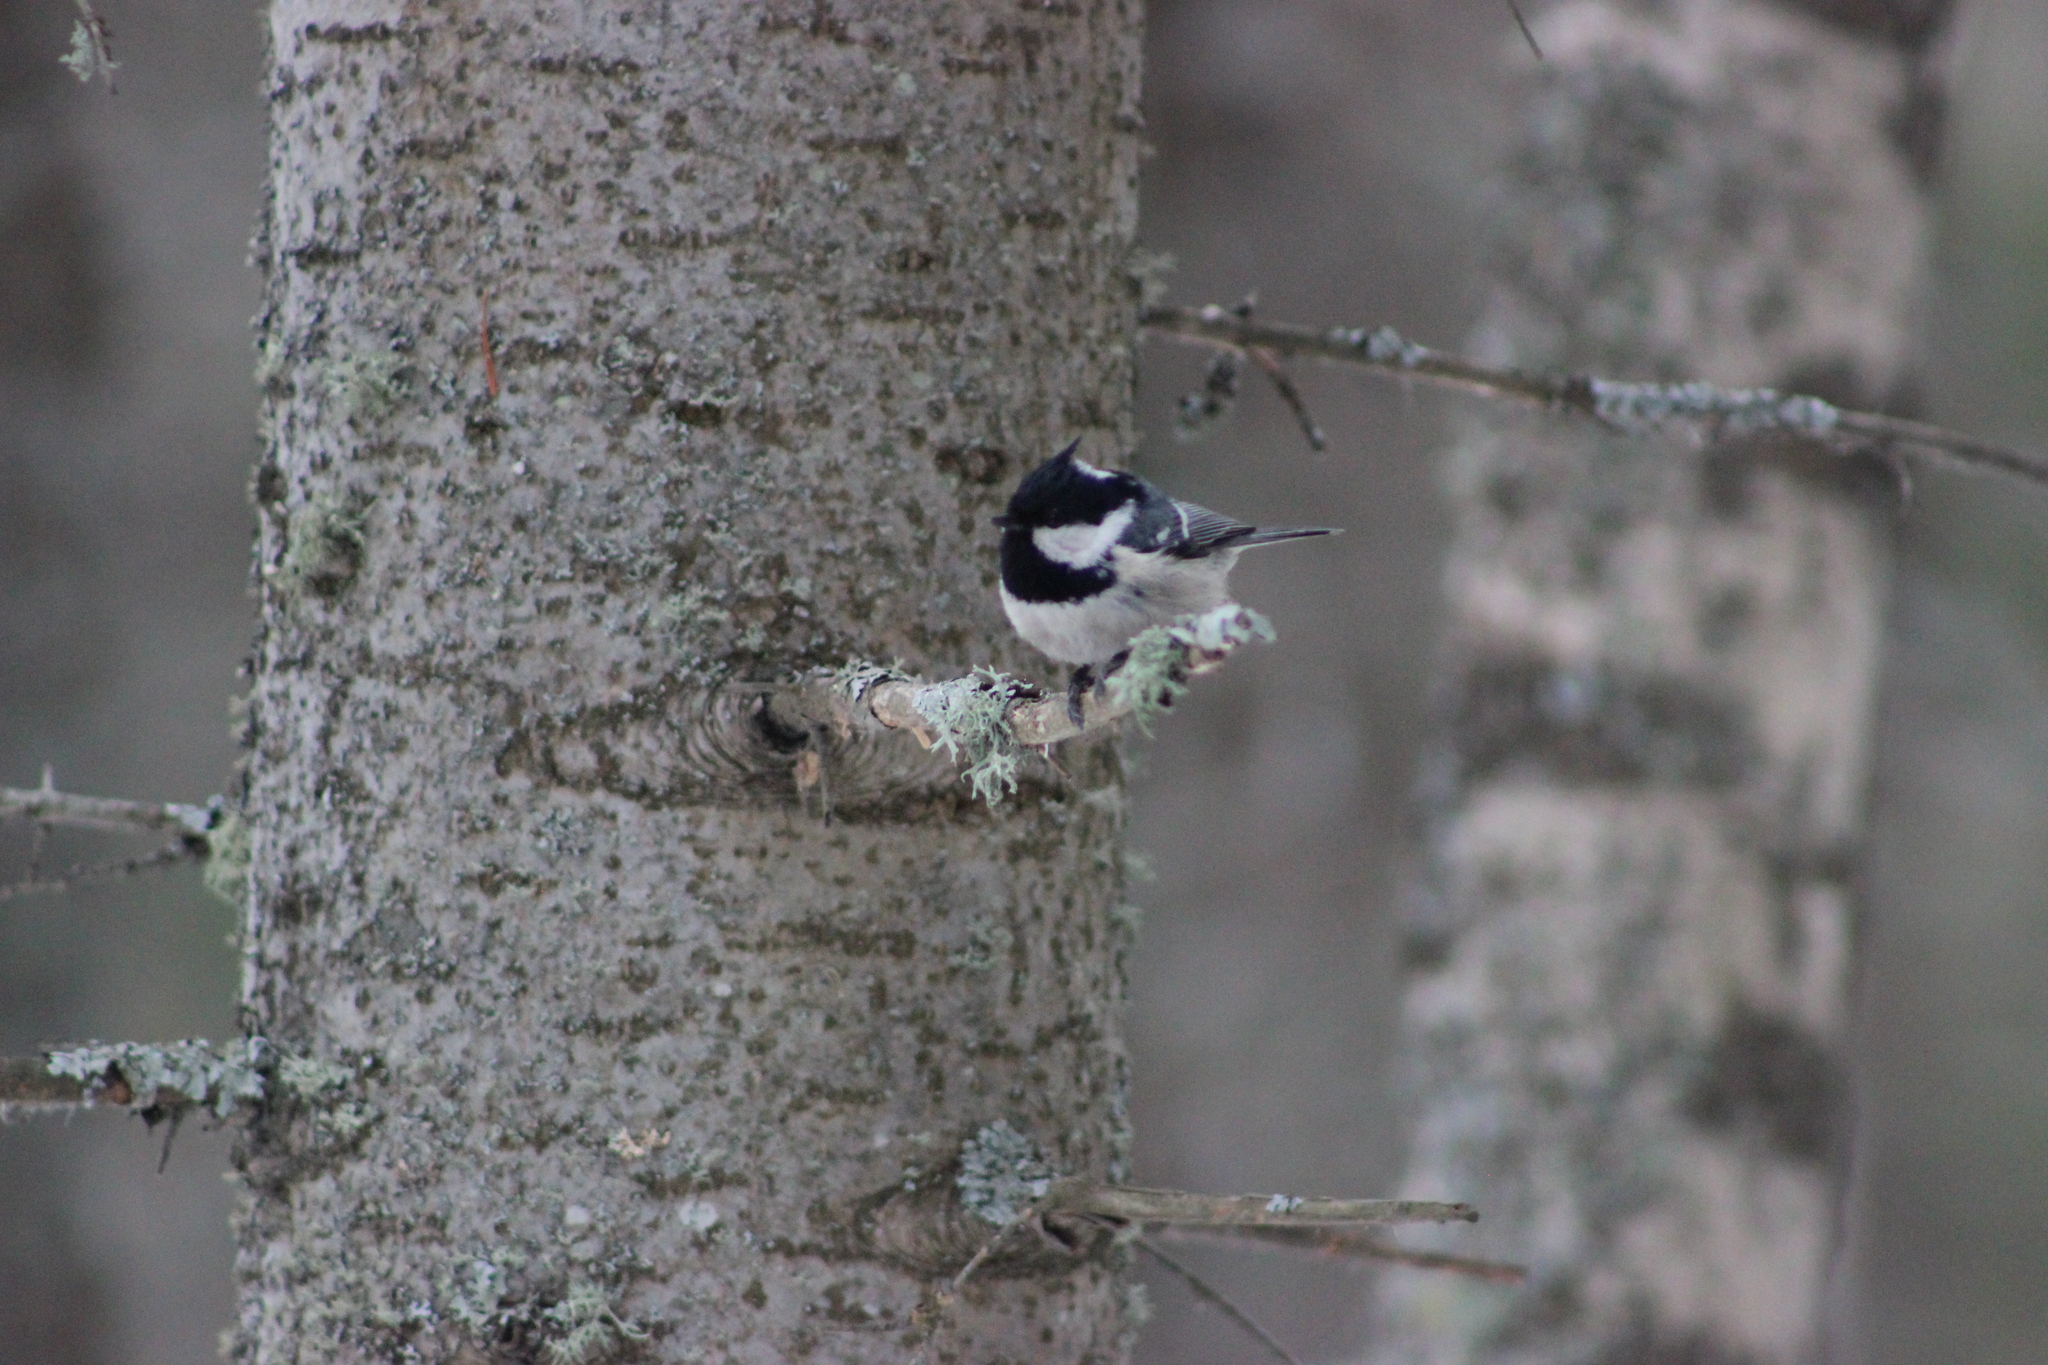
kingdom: Animalia
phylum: Chordata
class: Aves
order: Passeriformes
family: Paridae
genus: Periparus
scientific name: Periparus ater
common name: Coal tit
